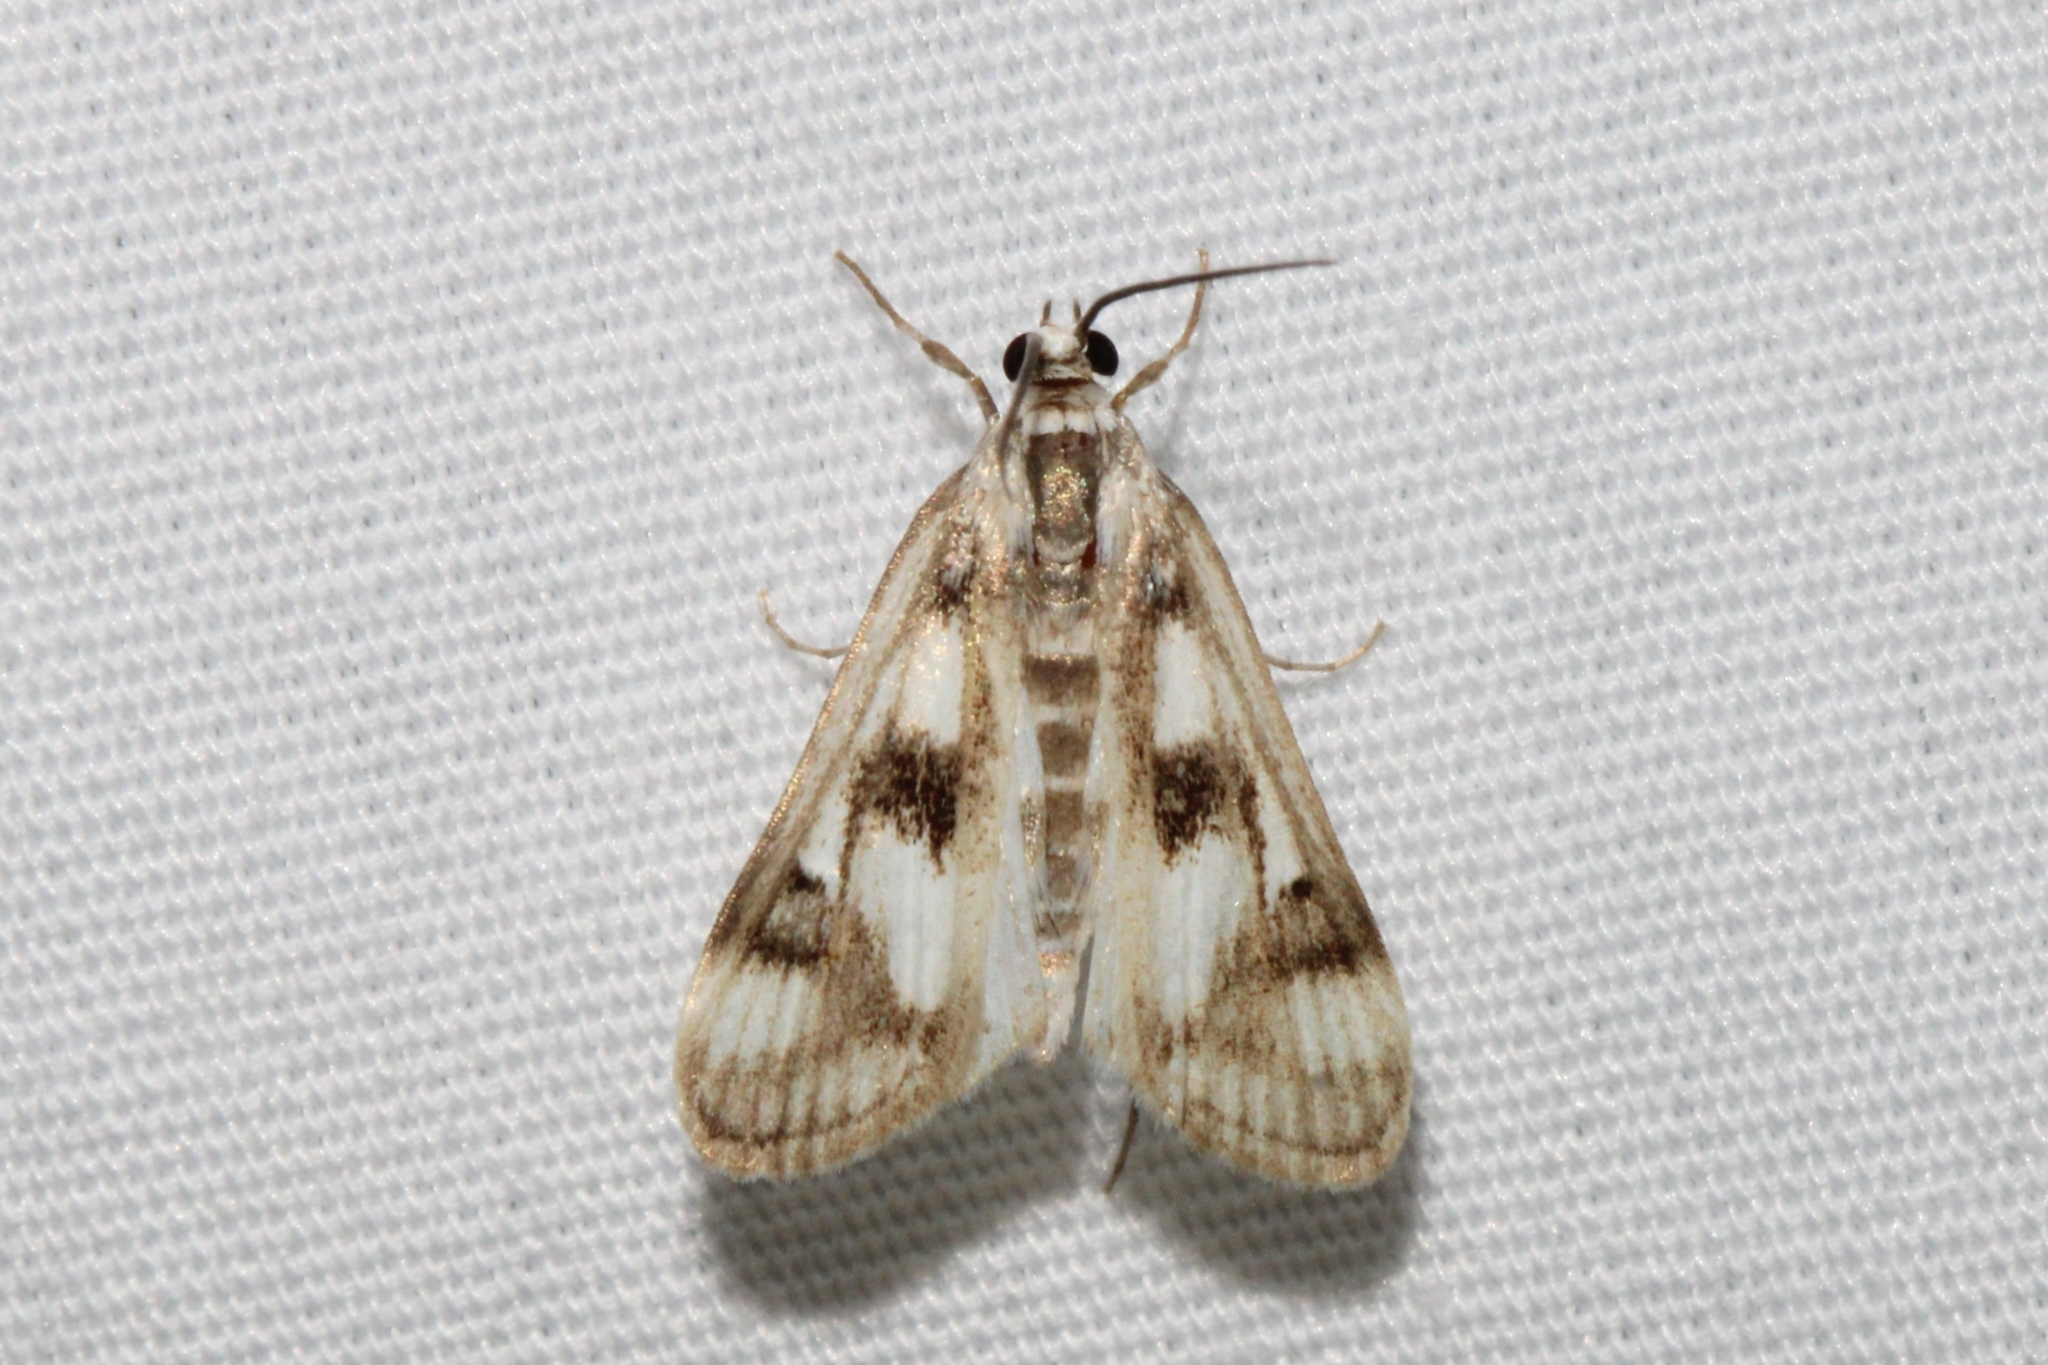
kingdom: Animalia
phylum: Arthropoda
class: Insecta
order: Lepidoptera
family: Crambidae
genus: Parapoynx
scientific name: Parapoynx maculalis
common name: Polymorphic pondweed moth
